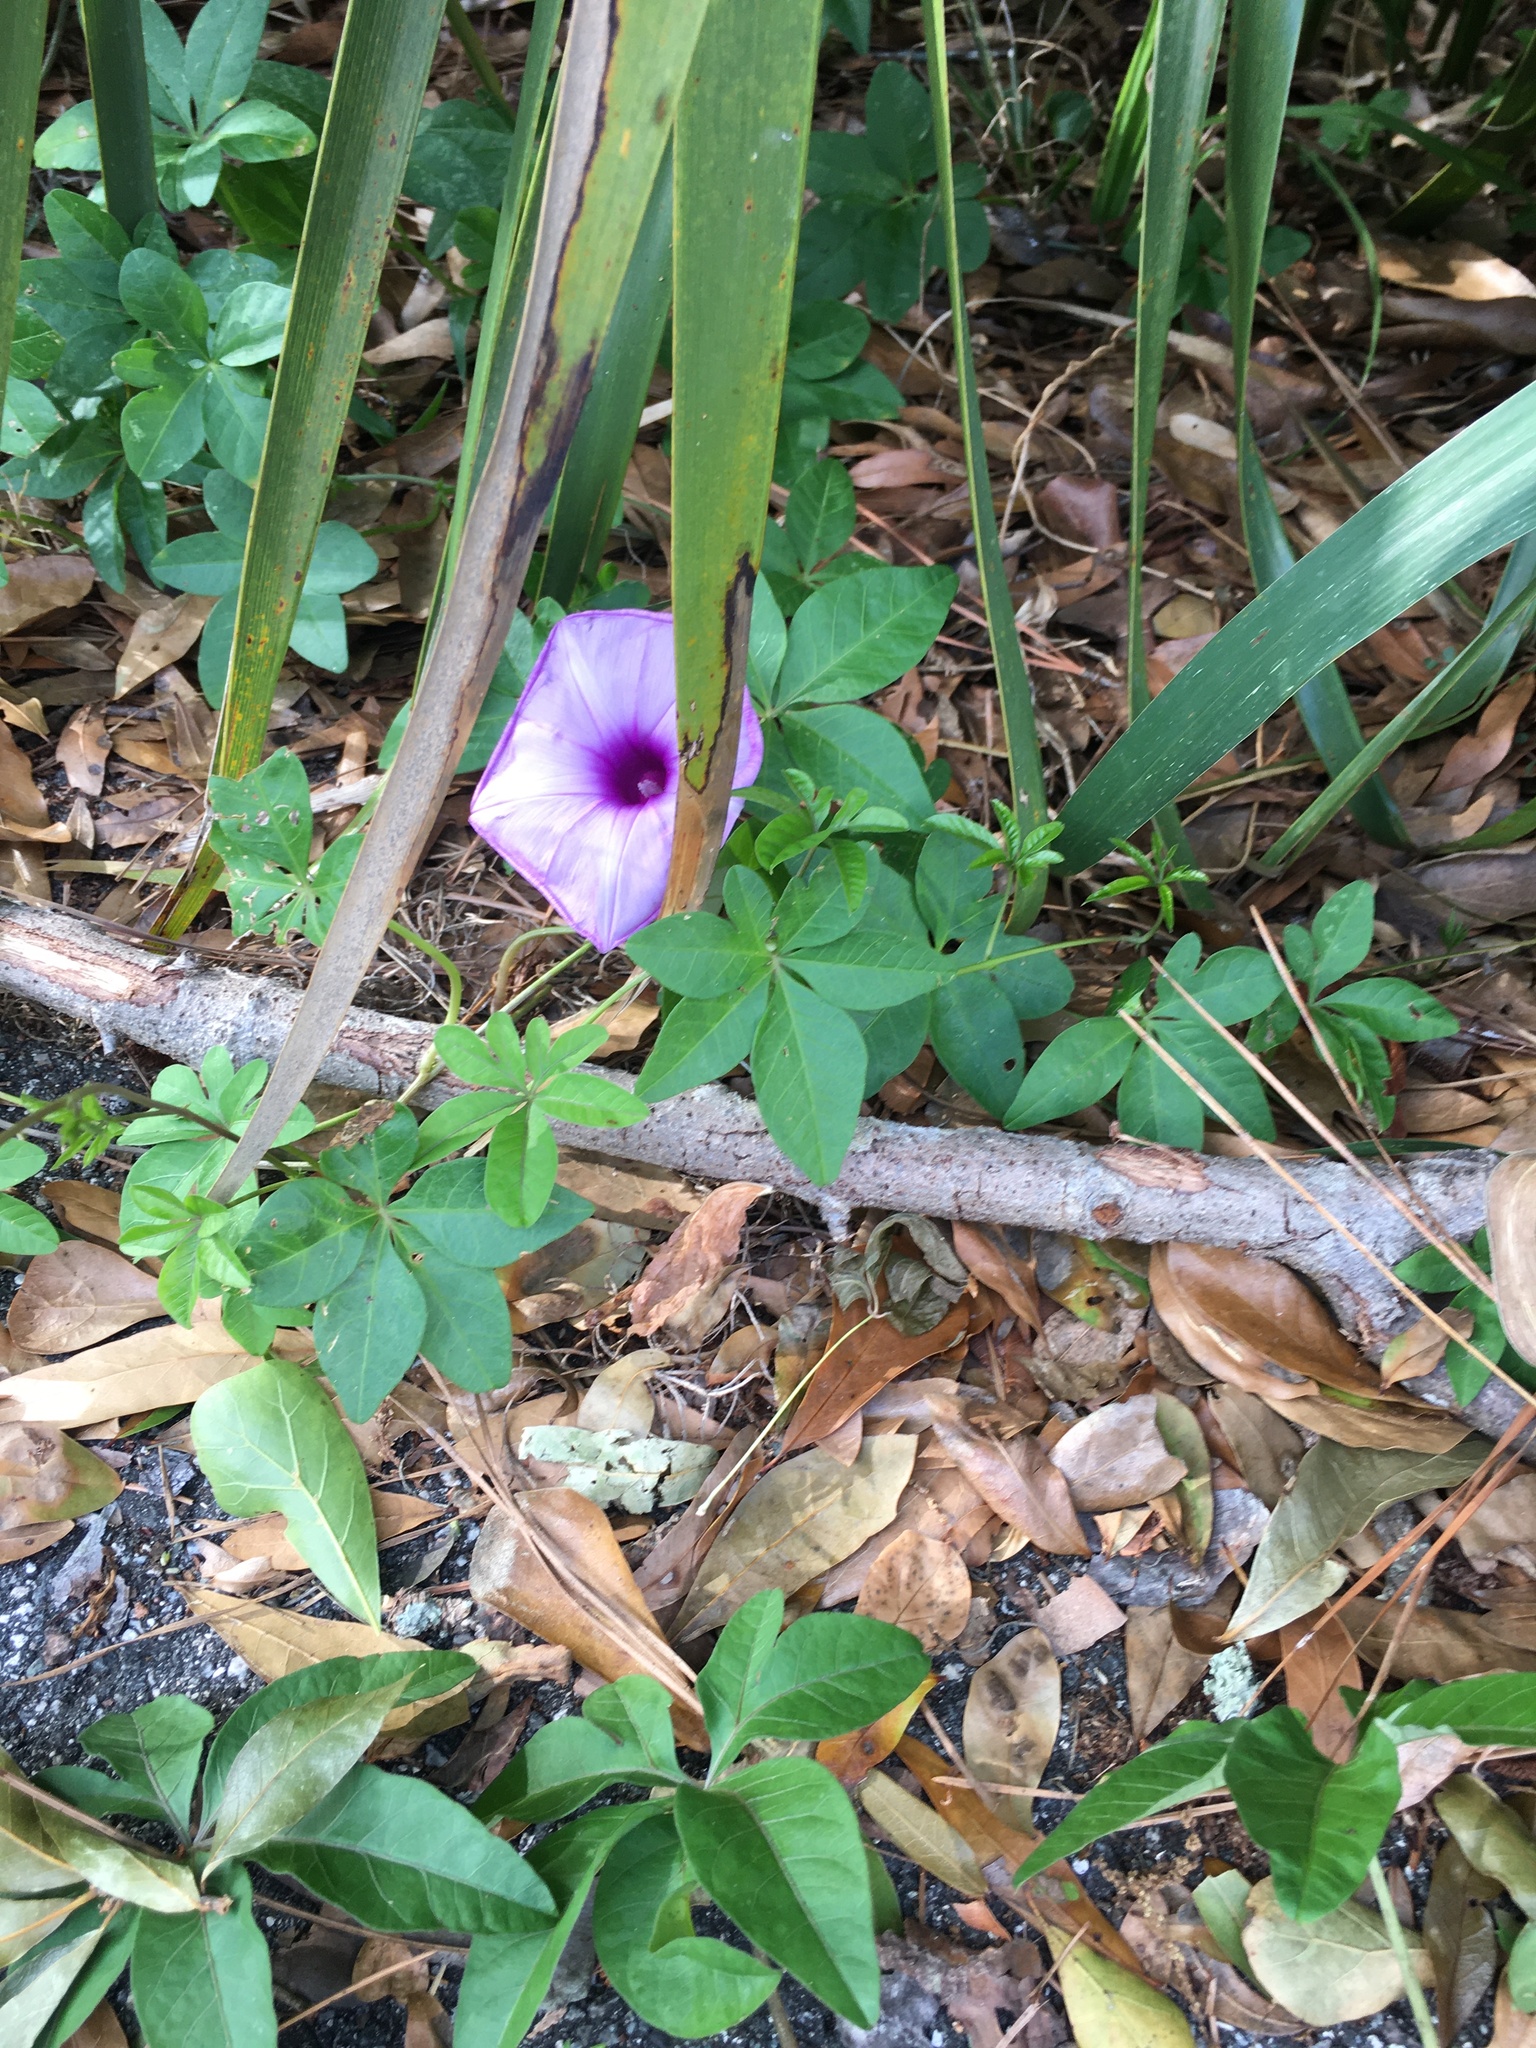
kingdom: Plantae
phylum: Tracheophyta
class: Magnoliopsida
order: Solanales
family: Convolvulaceae
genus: Ipomoea
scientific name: Ipomoea cairica
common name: Mile a minute vine
